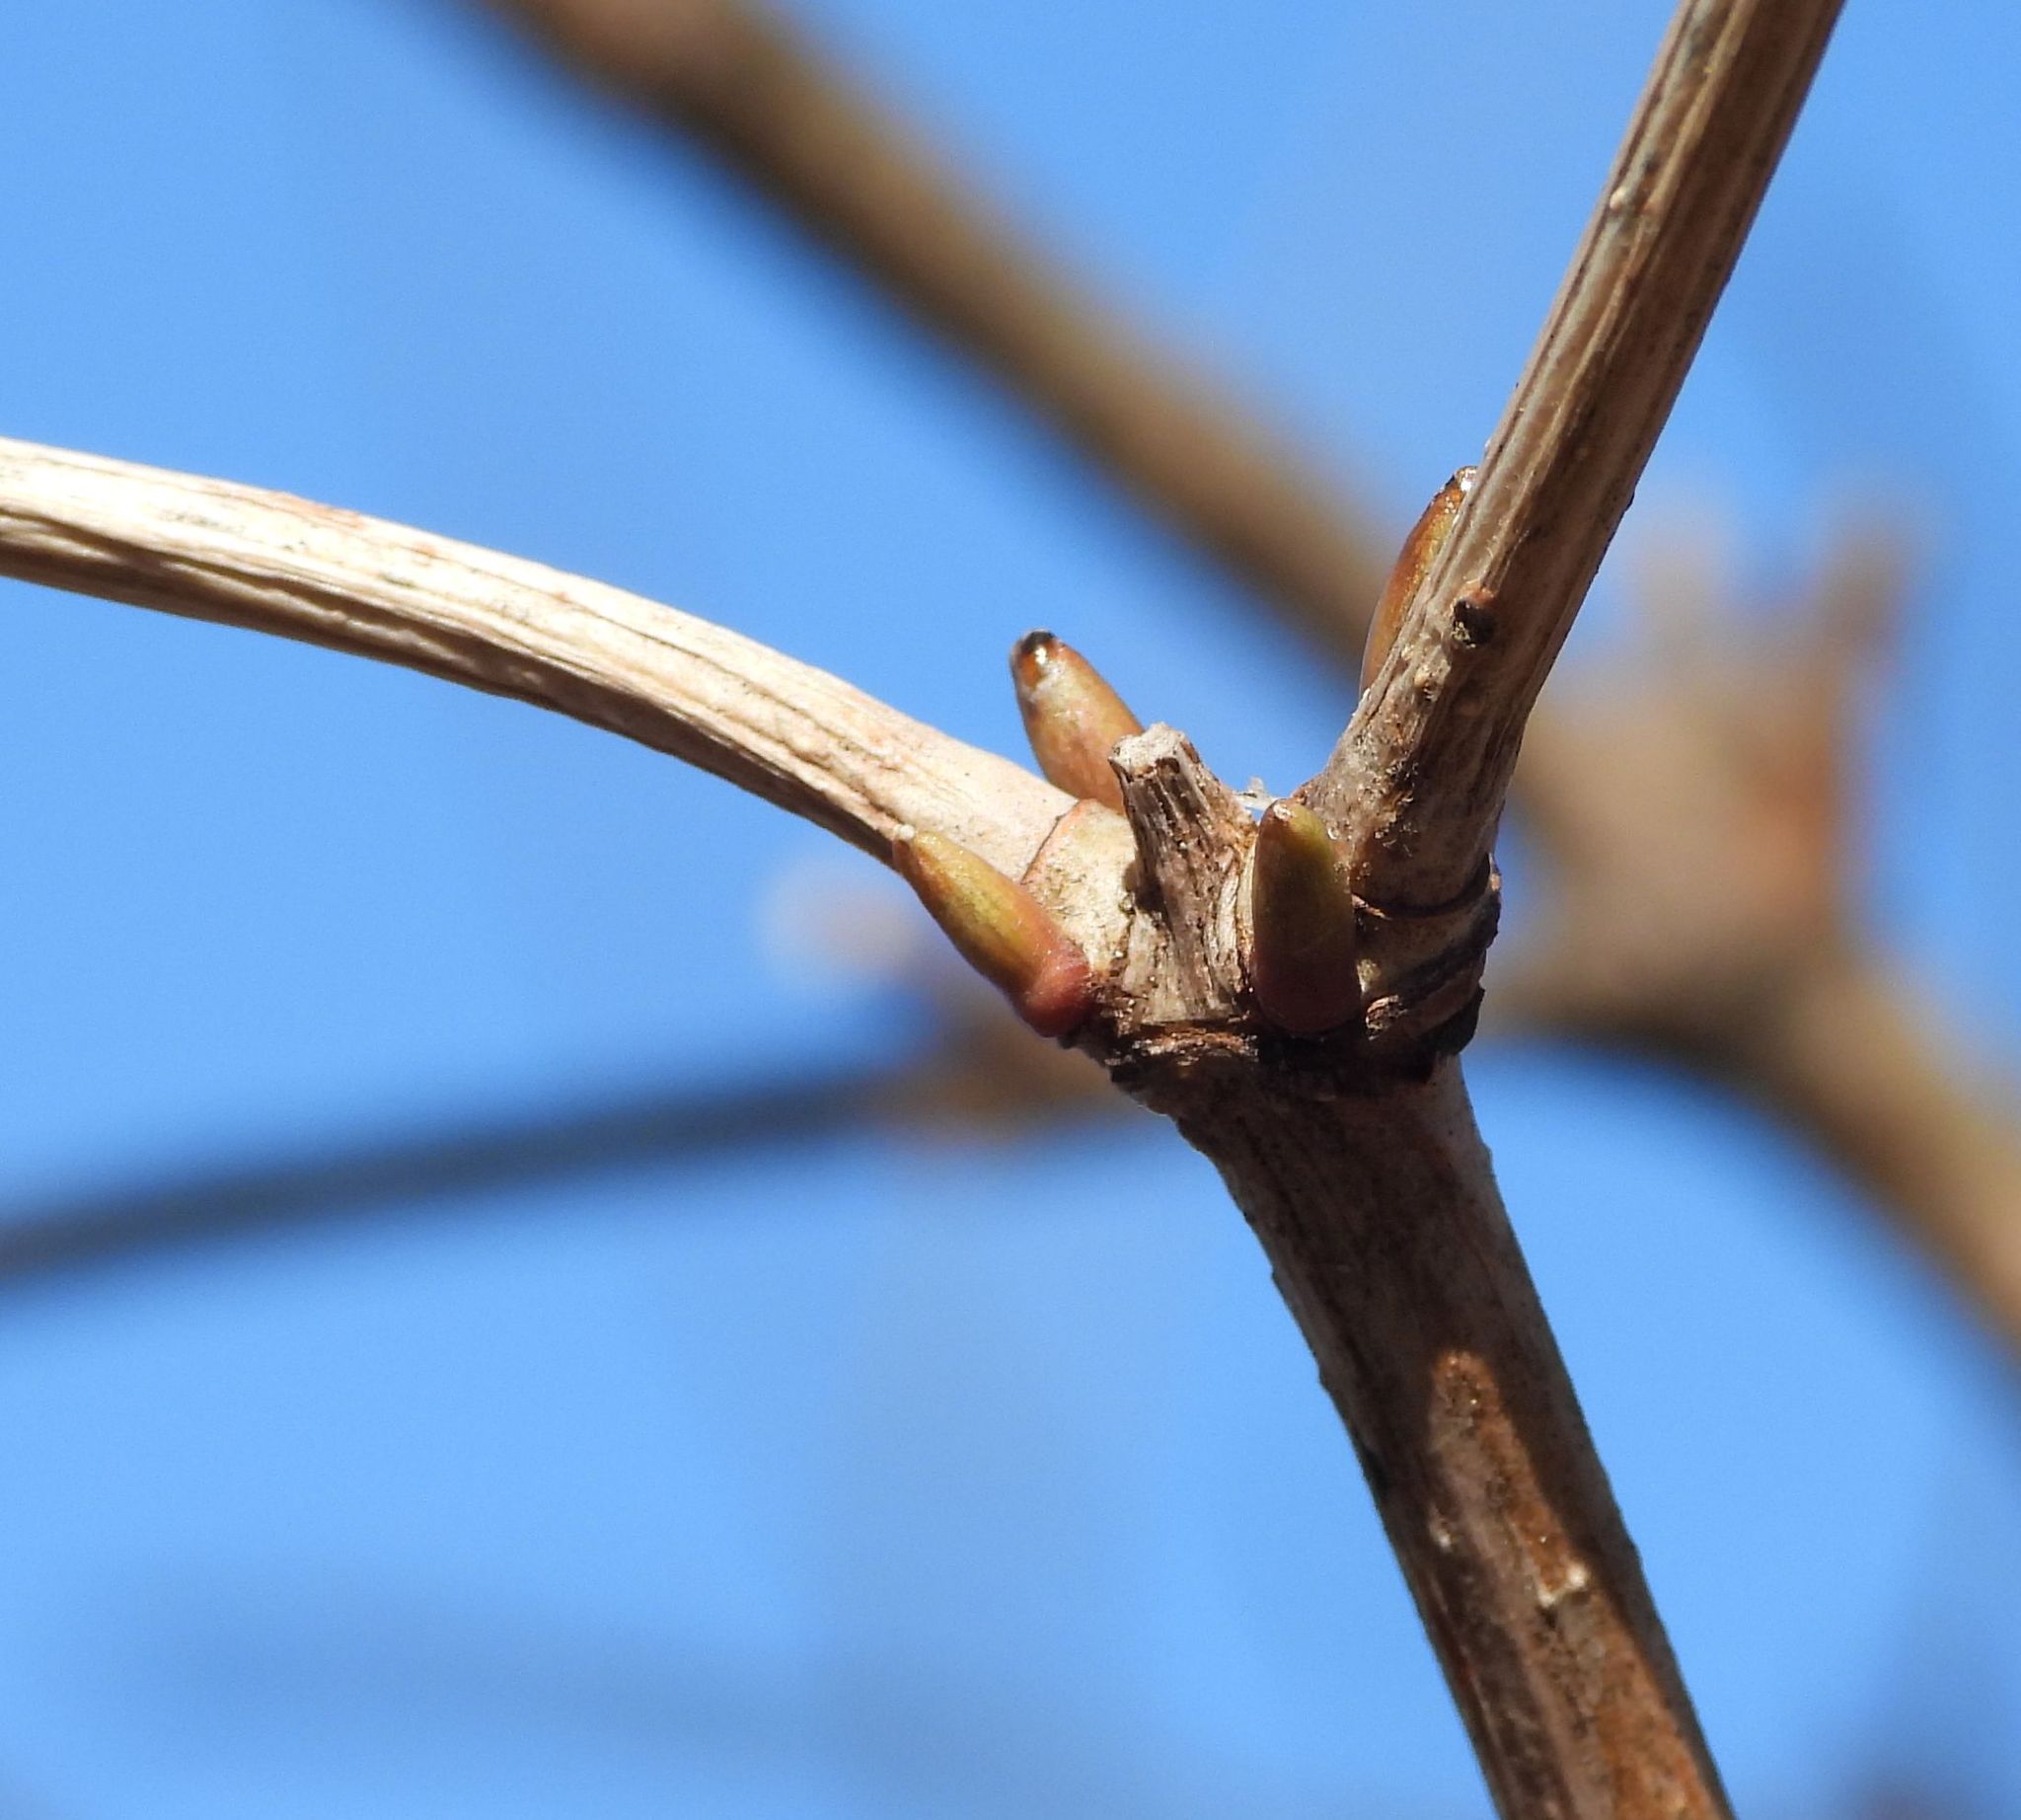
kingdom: Plantae
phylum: Tracheophyta
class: Magnoliopsida
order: Dipsacales
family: Viburnaceae
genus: Viburnum
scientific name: Viburnum opulus
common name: Guelder-rose
